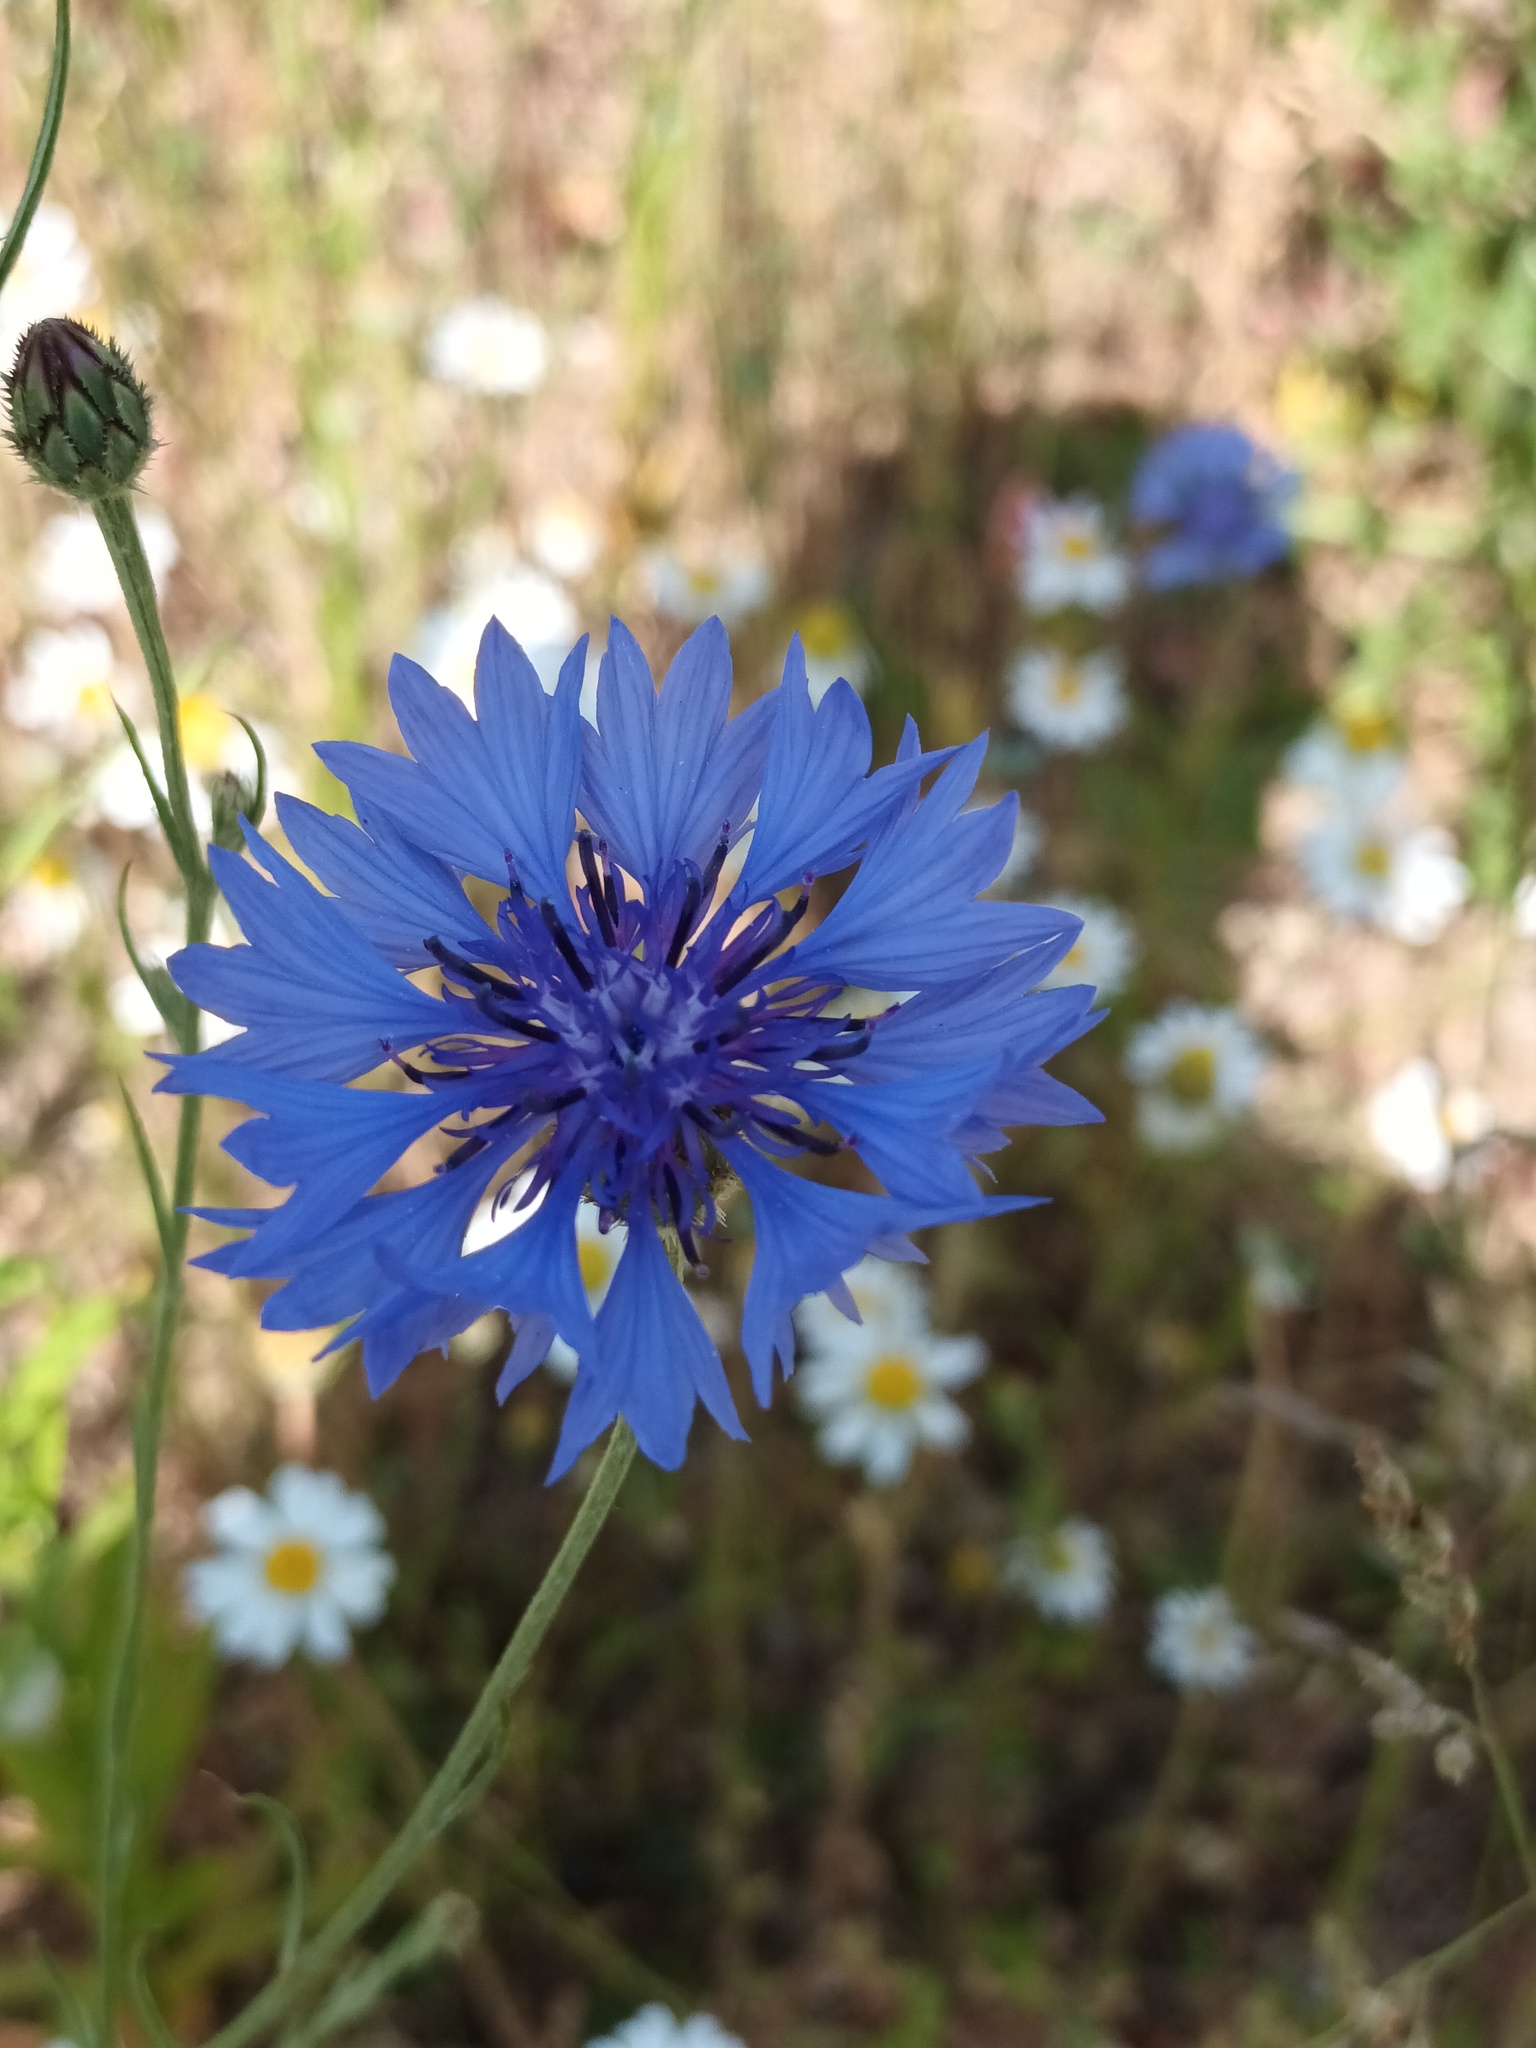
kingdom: Plantae
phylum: Tracheophyta
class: Magnoliopsida
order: Asterales
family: Asteraceae
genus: Centaurea
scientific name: Centaurea cyanus
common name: Cornflower
